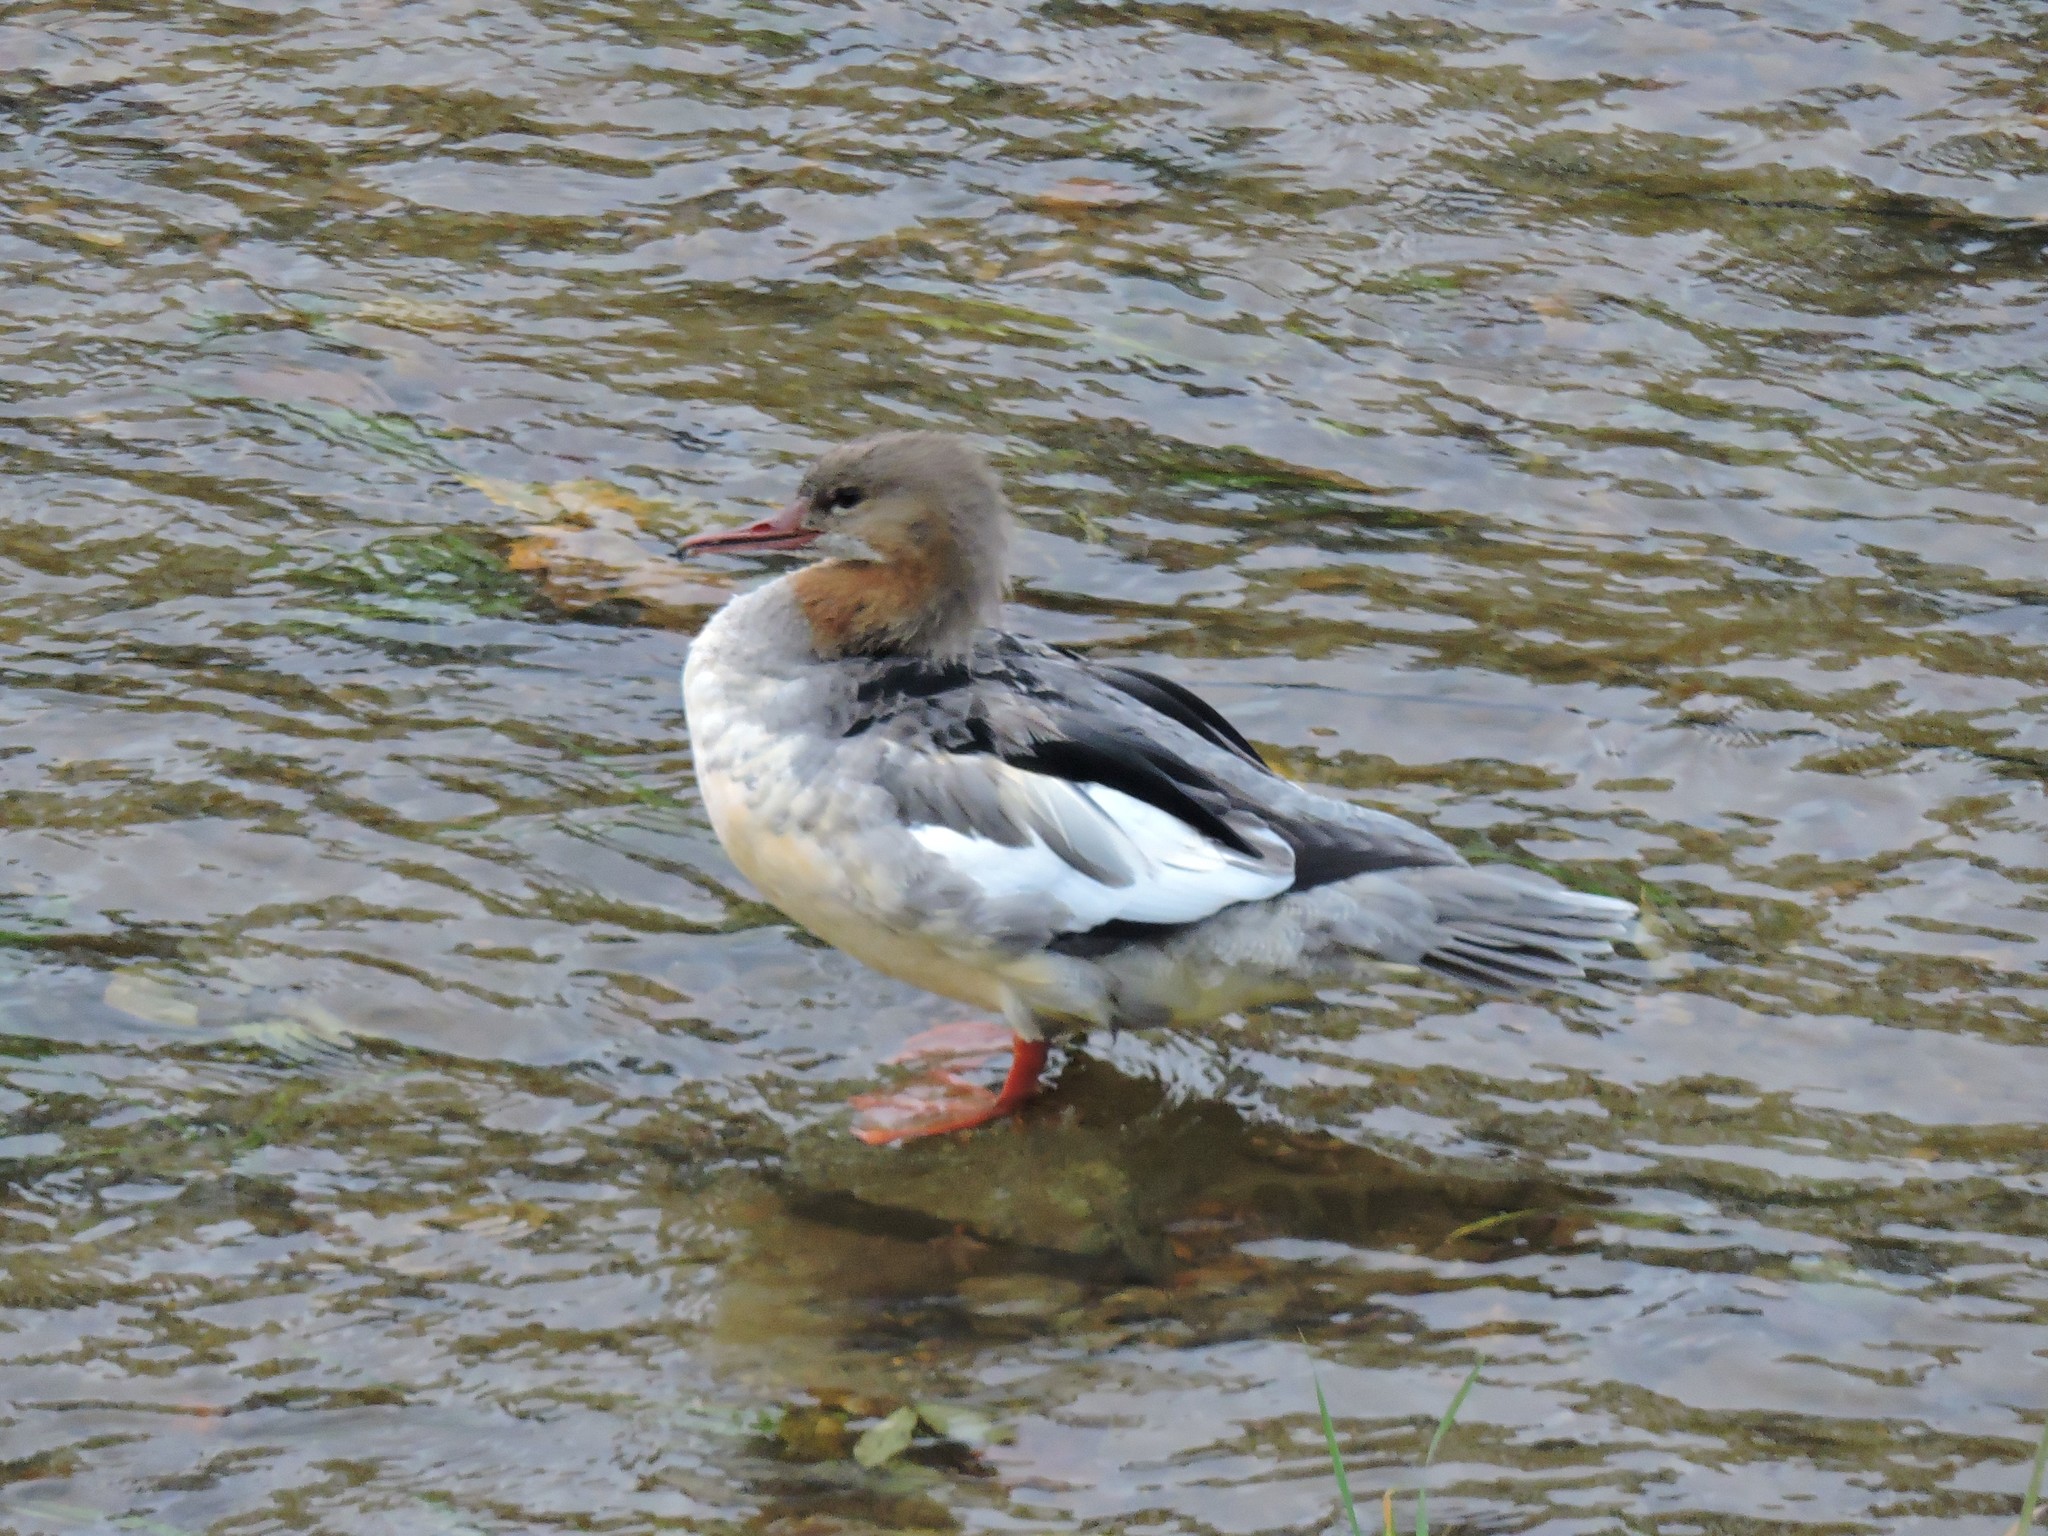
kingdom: Animalia
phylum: Chordata
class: Aves
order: Anseriformes
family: Anatidae
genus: Mergus
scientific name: Mergus merganser
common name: Common merganser
